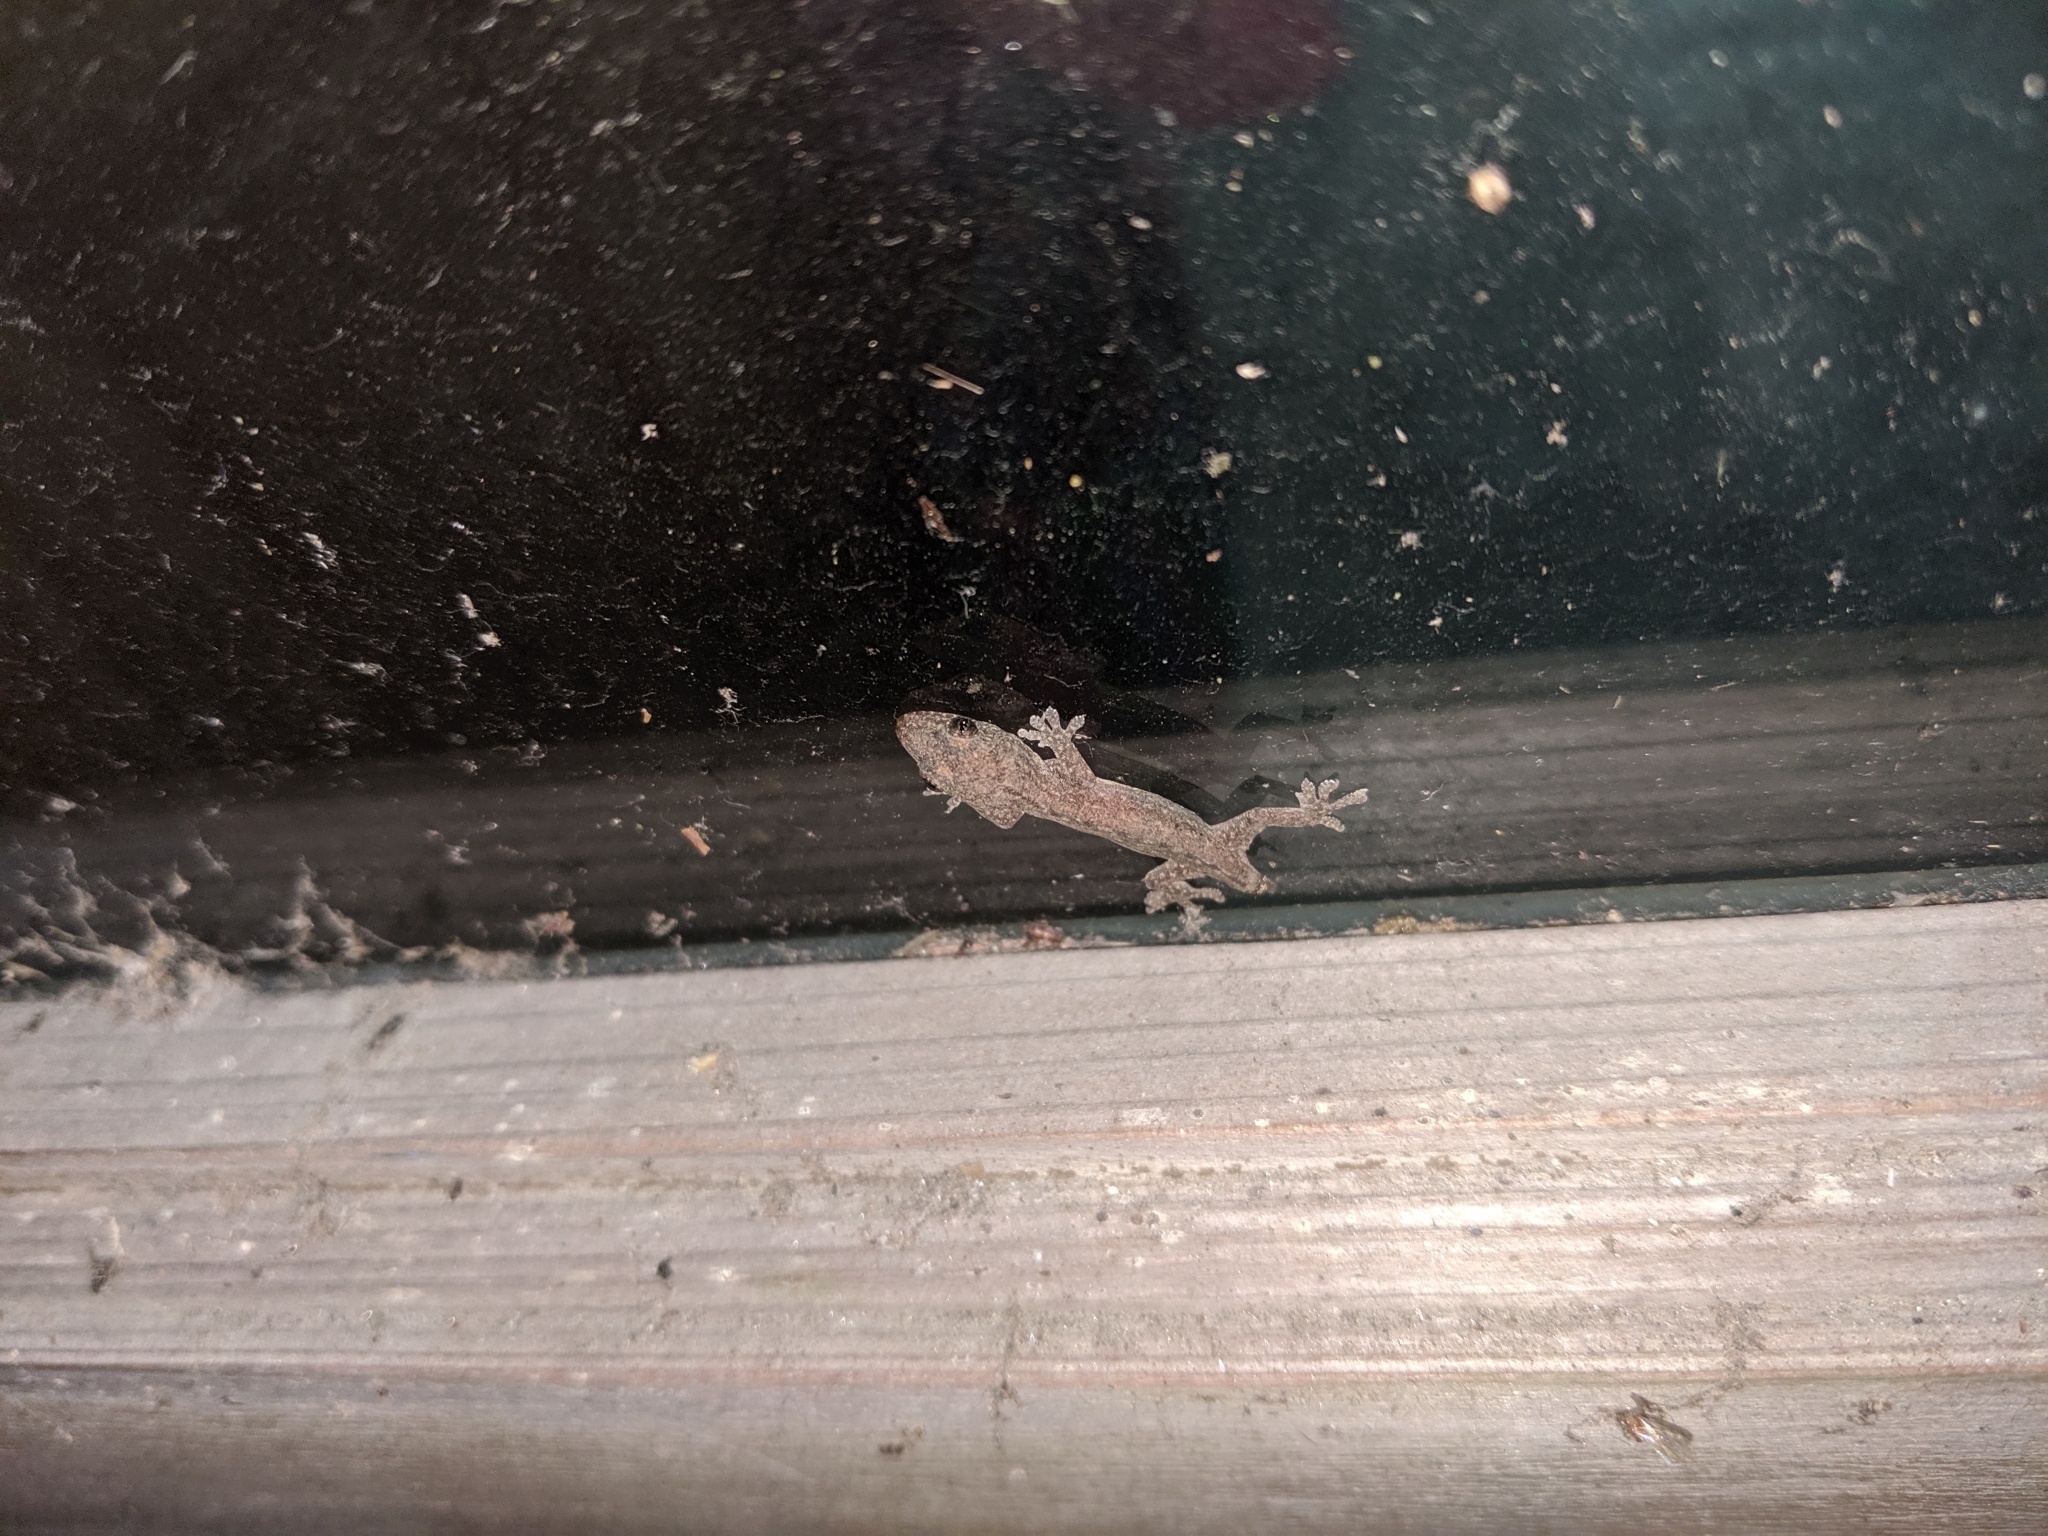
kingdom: Animalia
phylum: Chordata
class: Squamata
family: Gekkonidae
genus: Hemidactylus
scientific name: Hemidactylus frenatus
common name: Common house gecko
